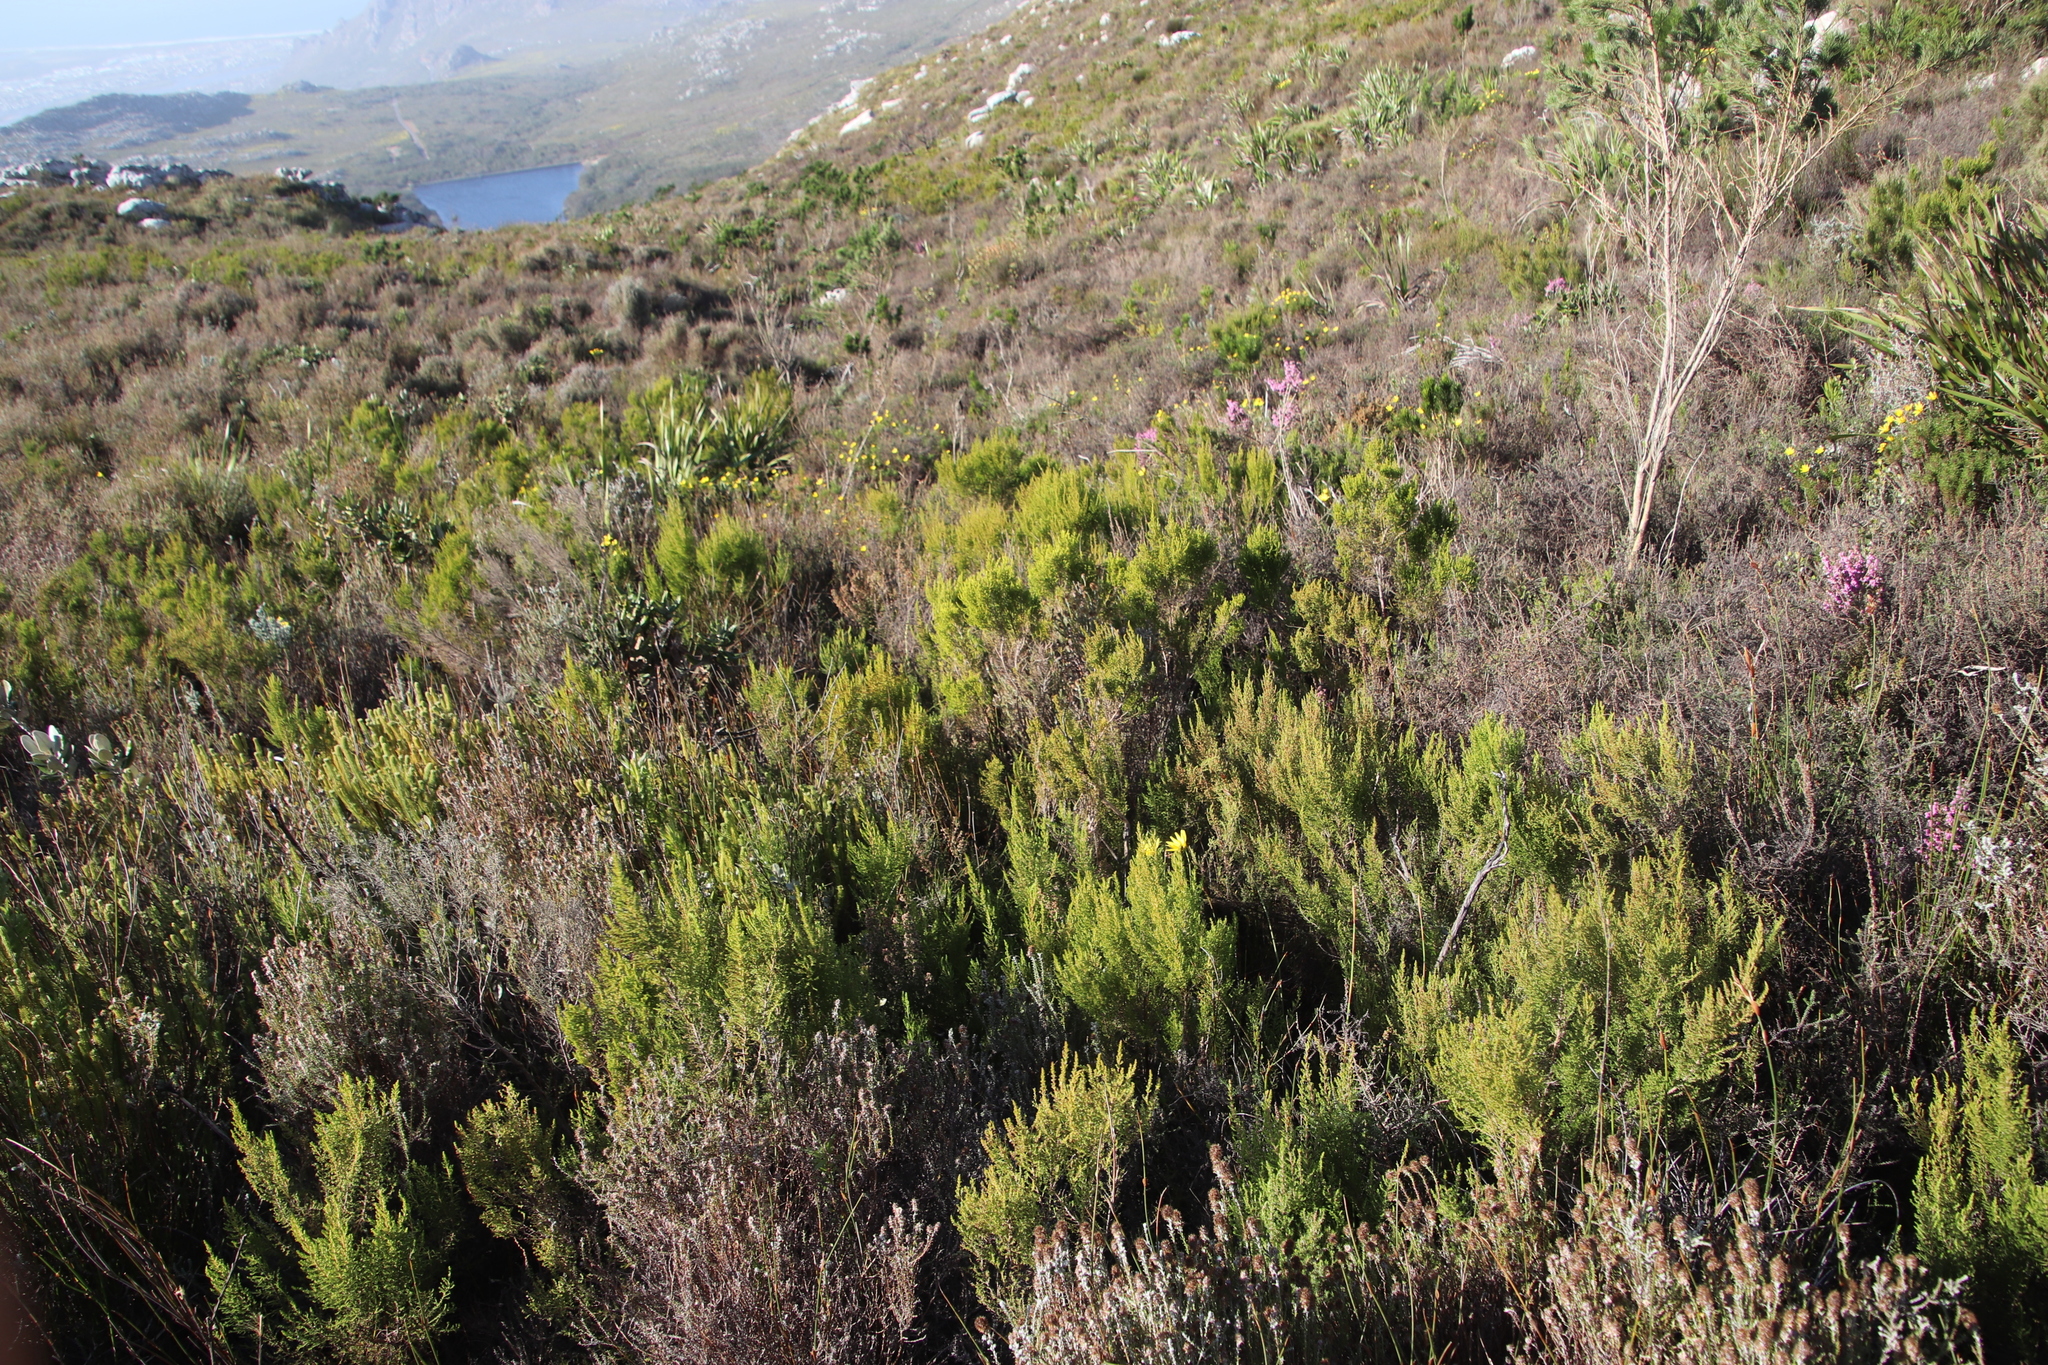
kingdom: Plantae
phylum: Tracheophyta
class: Magnoliopsida
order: Ericales
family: Ericaceae
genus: Erica
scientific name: Erica hispidula
